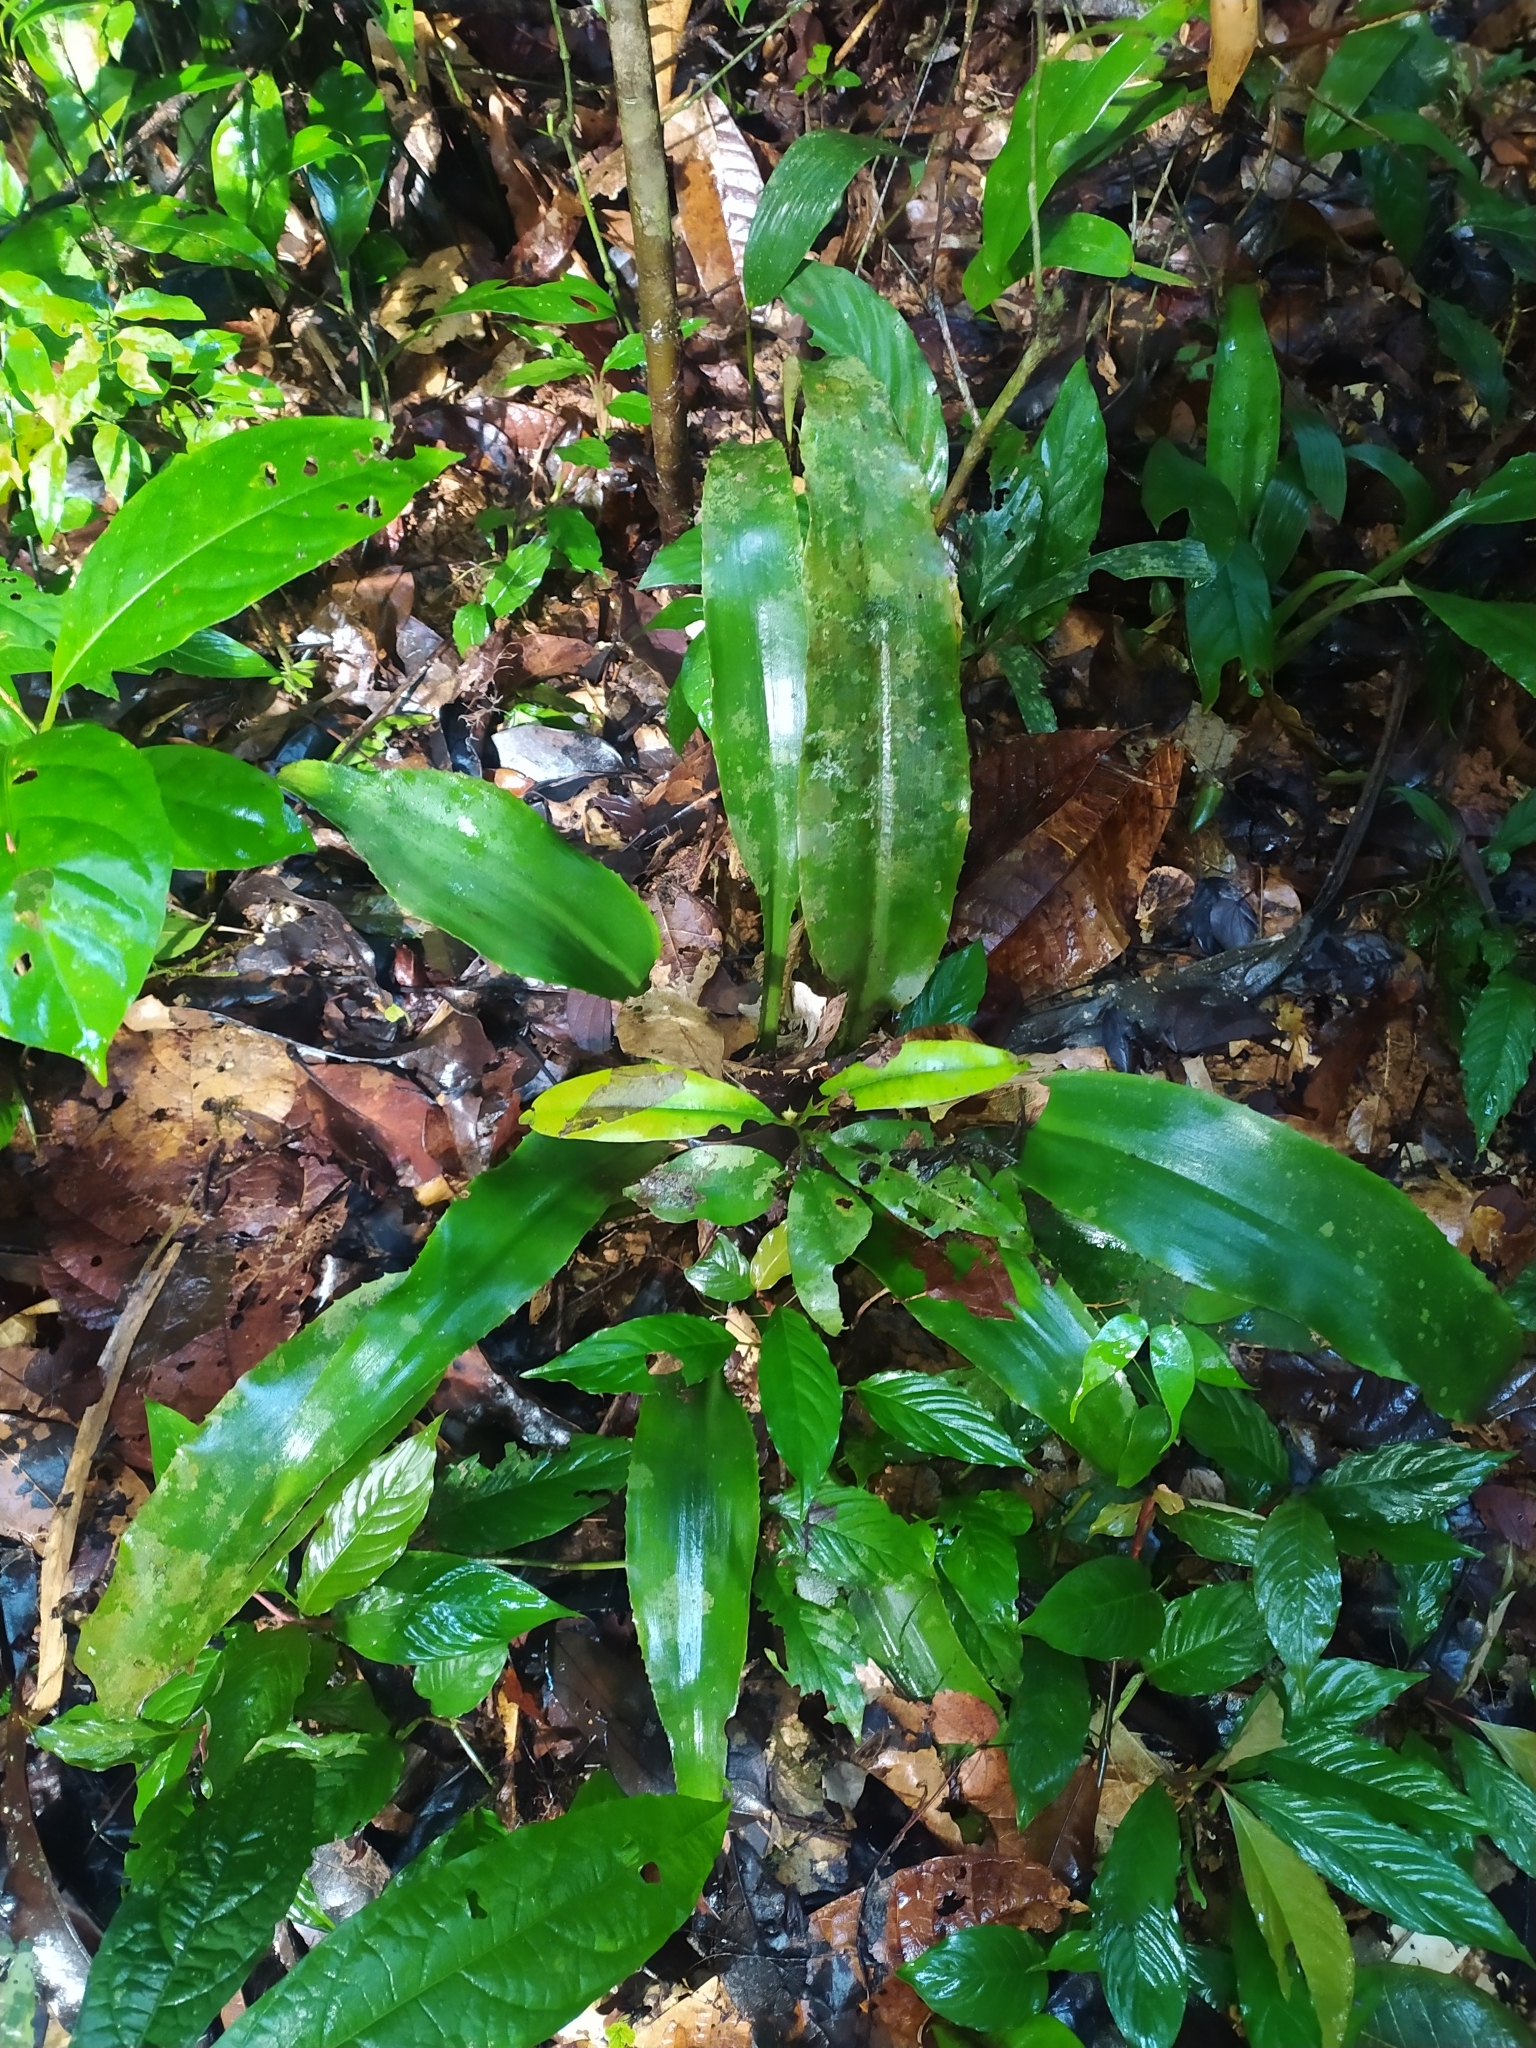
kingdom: Plantae
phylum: Tracheophyta
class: Liliopsida
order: Poales
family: Bromeliaceae
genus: Disteganthus
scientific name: Disteganthus basilateralis
